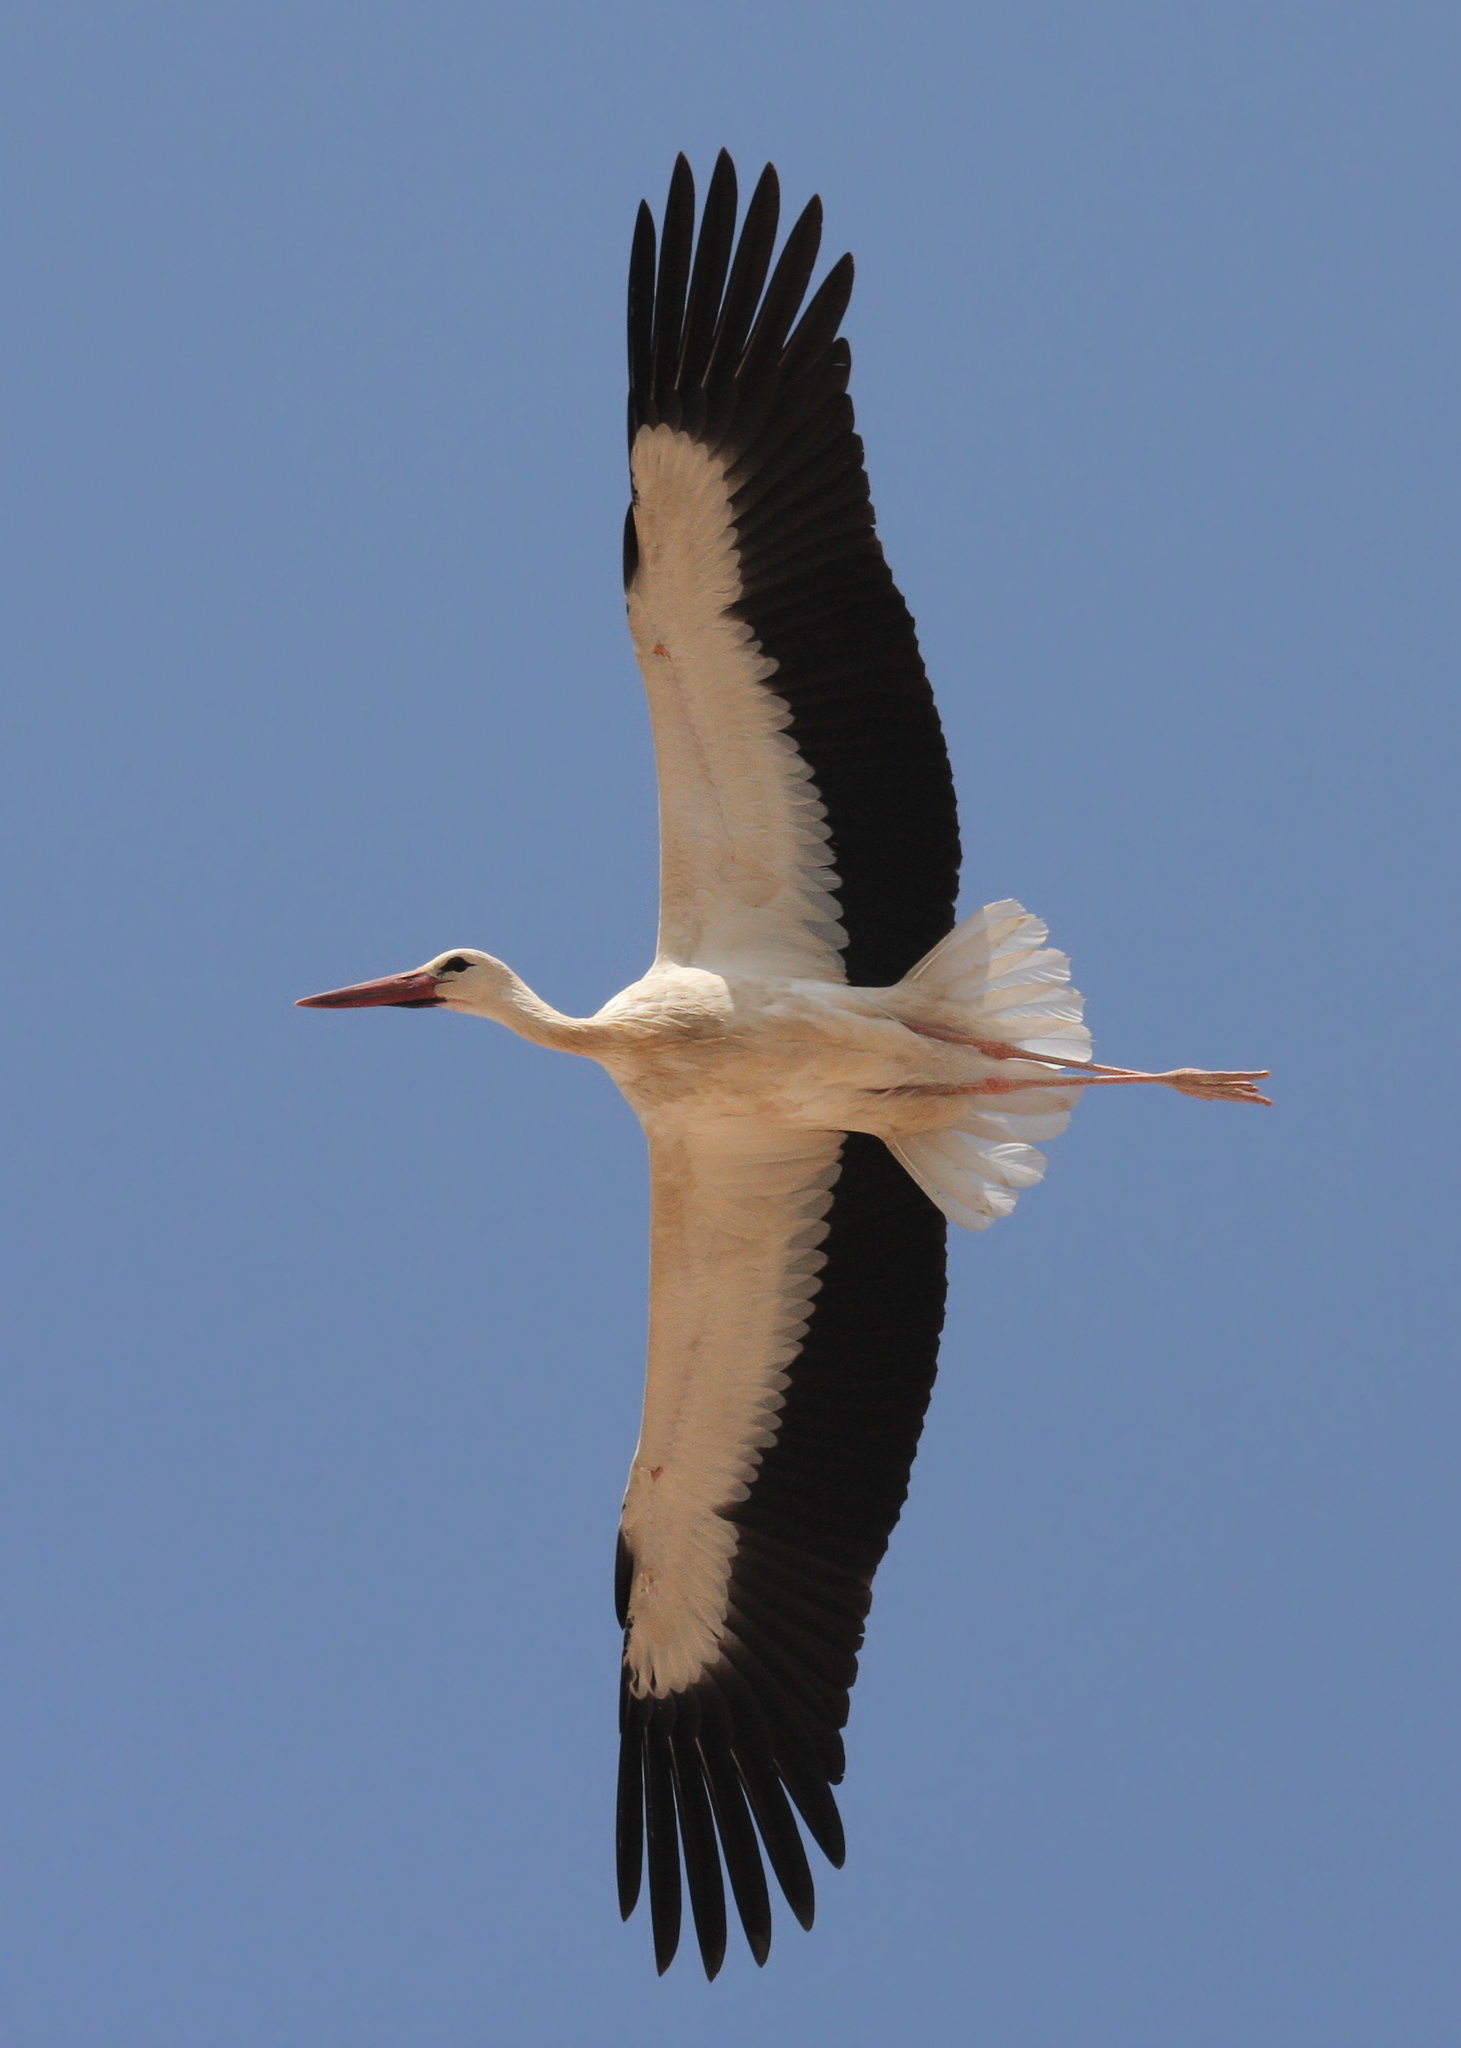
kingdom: Animalia
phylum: Chordata
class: Aves
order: Ciconiiformes
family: Ciconiidae
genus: Ciconia
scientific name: Ciconia ciconia
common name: White stork
